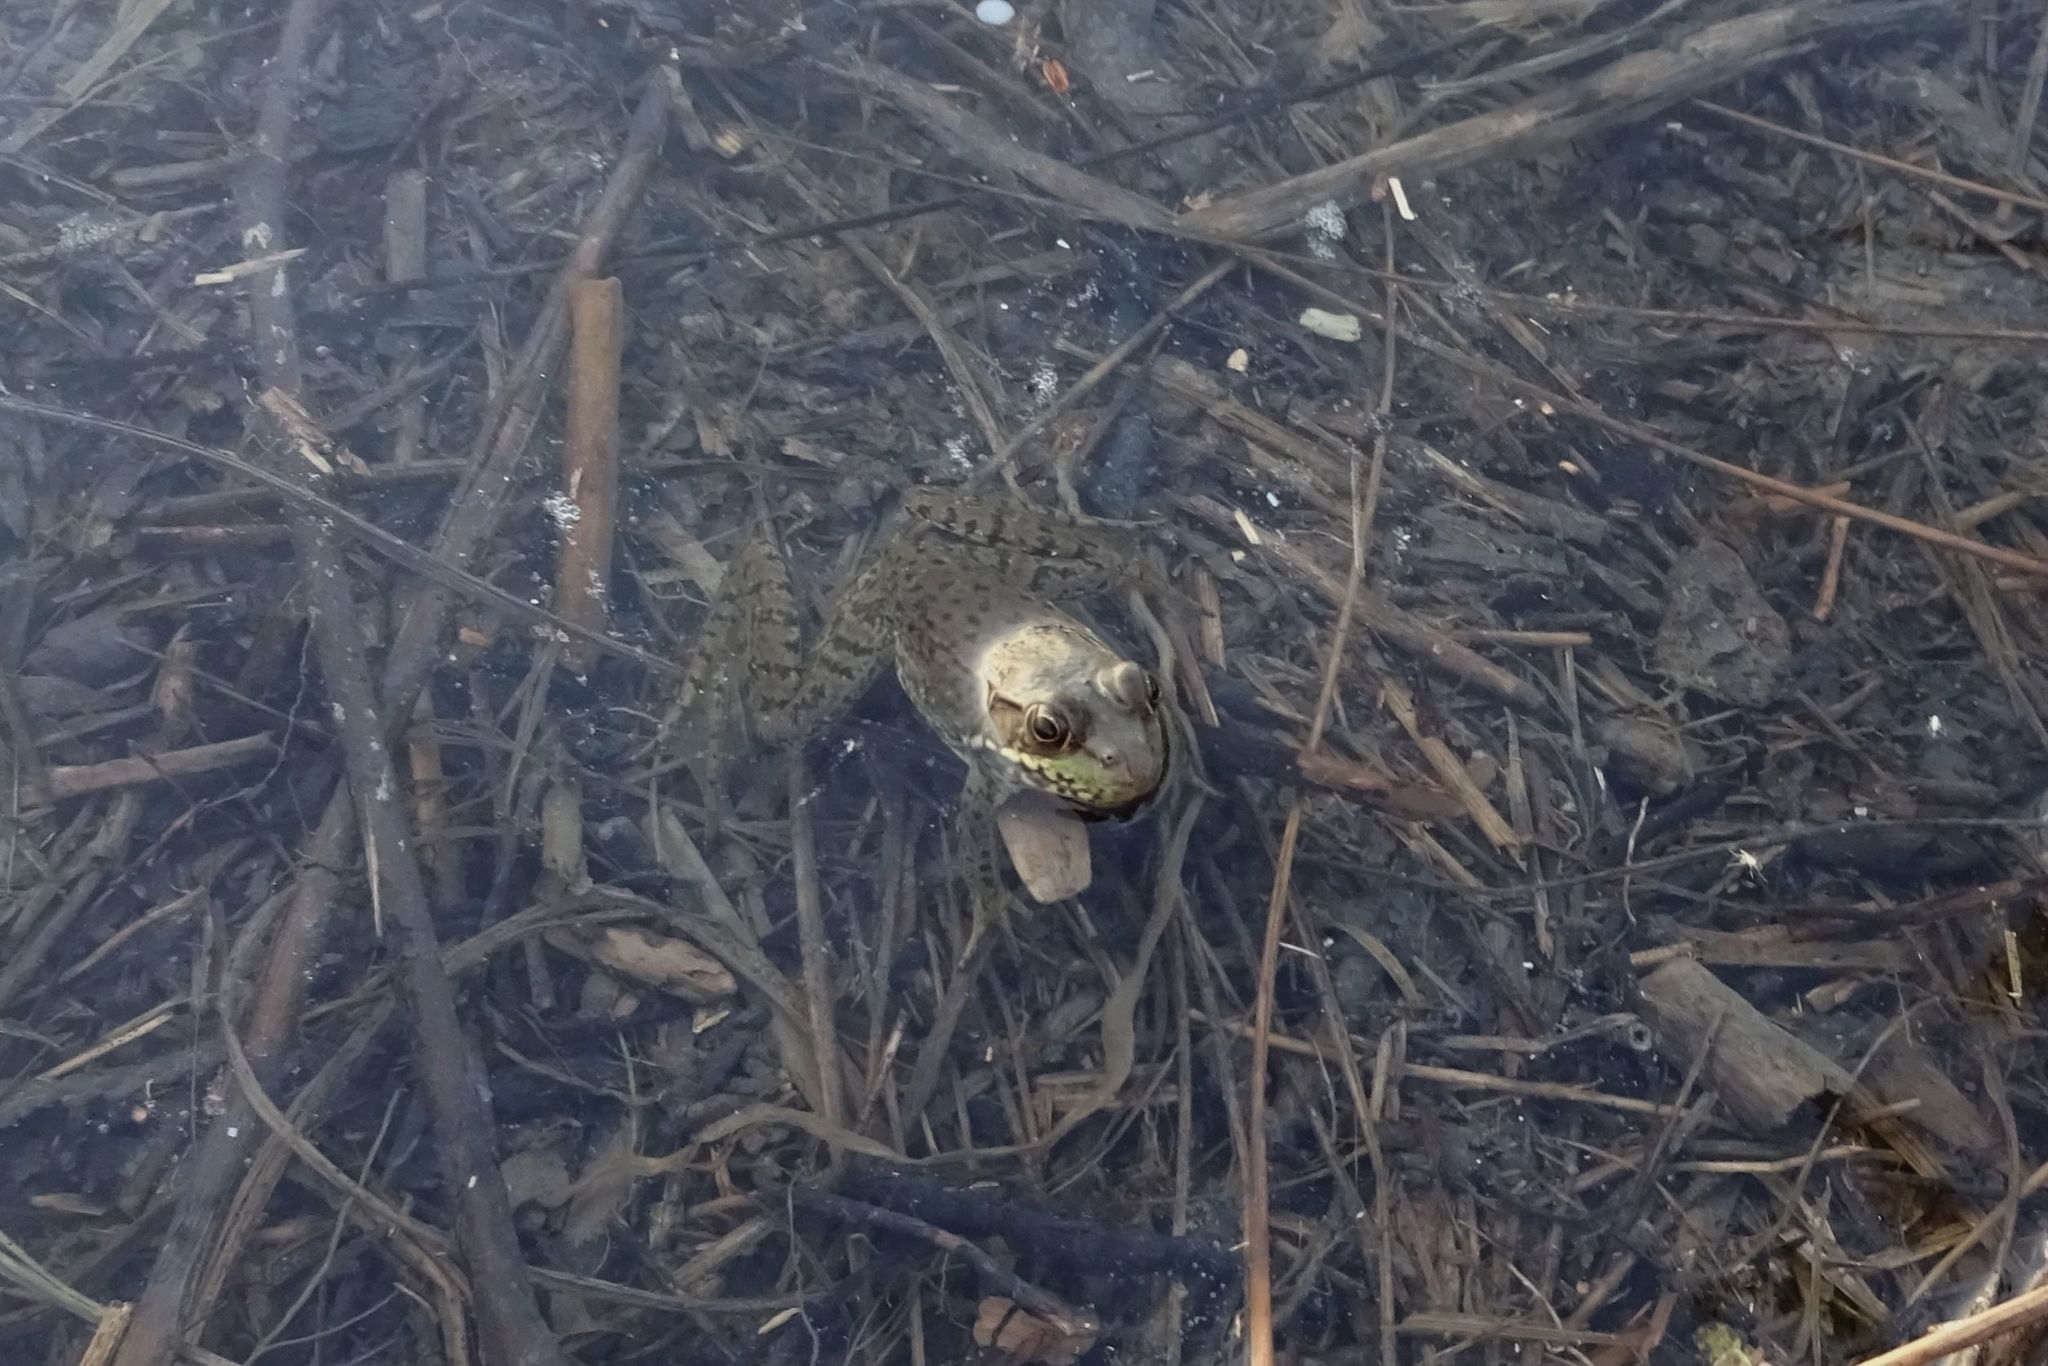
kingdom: Animalia
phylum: Chordata
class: Amphibia
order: Anura
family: Ranidae
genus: Lithobates
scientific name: Lithobates clamitans
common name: Green frog
